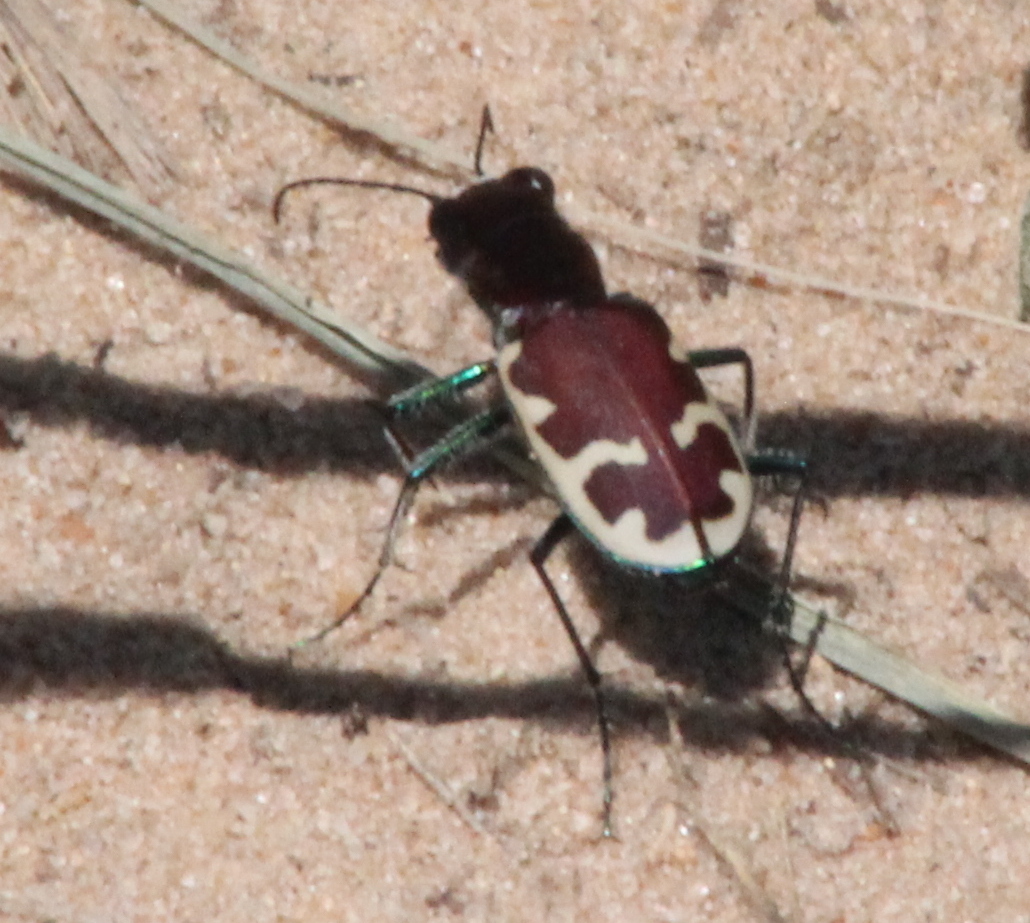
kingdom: Animalia
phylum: Arthropoda
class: Insecta
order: Coleoptera
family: Carabidae
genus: Cicindela
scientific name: Cicindela formosa
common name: Big sand tiger beetle
